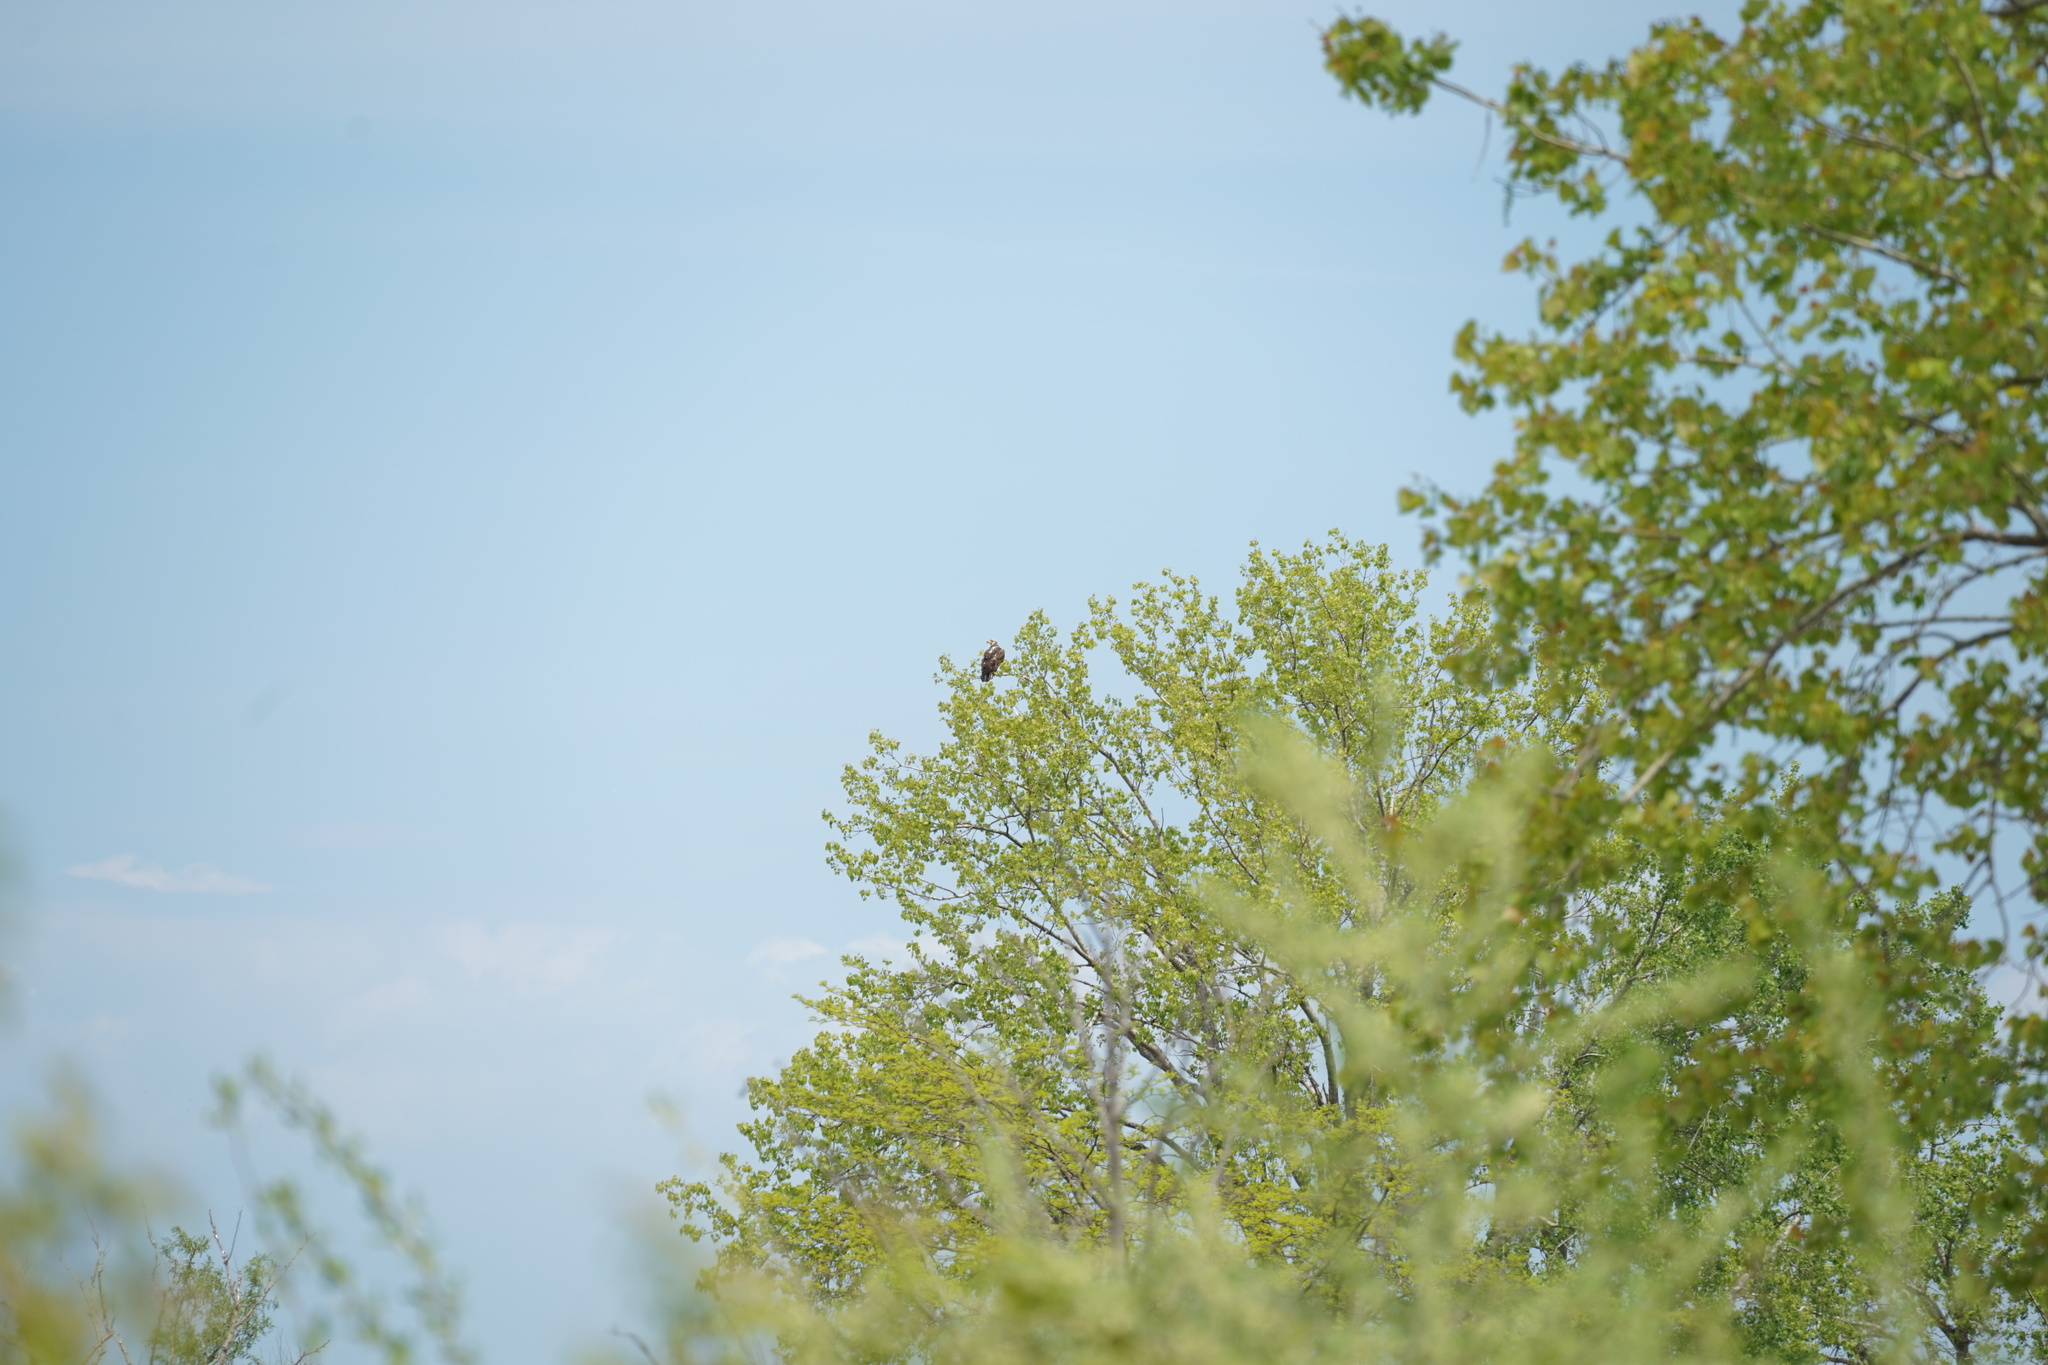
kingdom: Animalia
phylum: Chordata
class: Aves
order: Accipitriformes
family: Accipitridae
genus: Haliaeetus
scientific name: Haliaeetus leucocephalus
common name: Bald eagle
